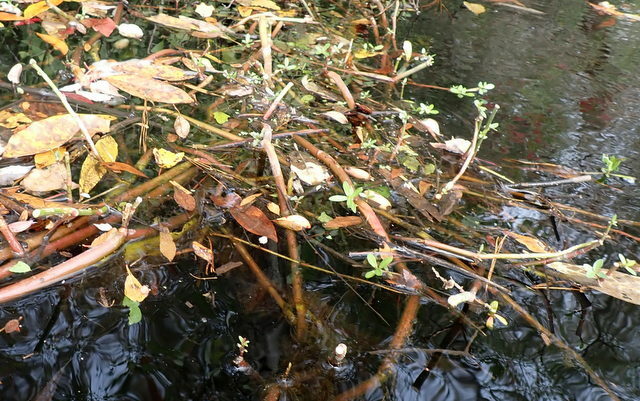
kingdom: Plantae
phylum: Tracheophyta
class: Magnoliopsida
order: Caryophyllales
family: Amaranthaceae
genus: Alternanthera
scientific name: Alternanthera philoxeroides
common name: Alligatorweed
